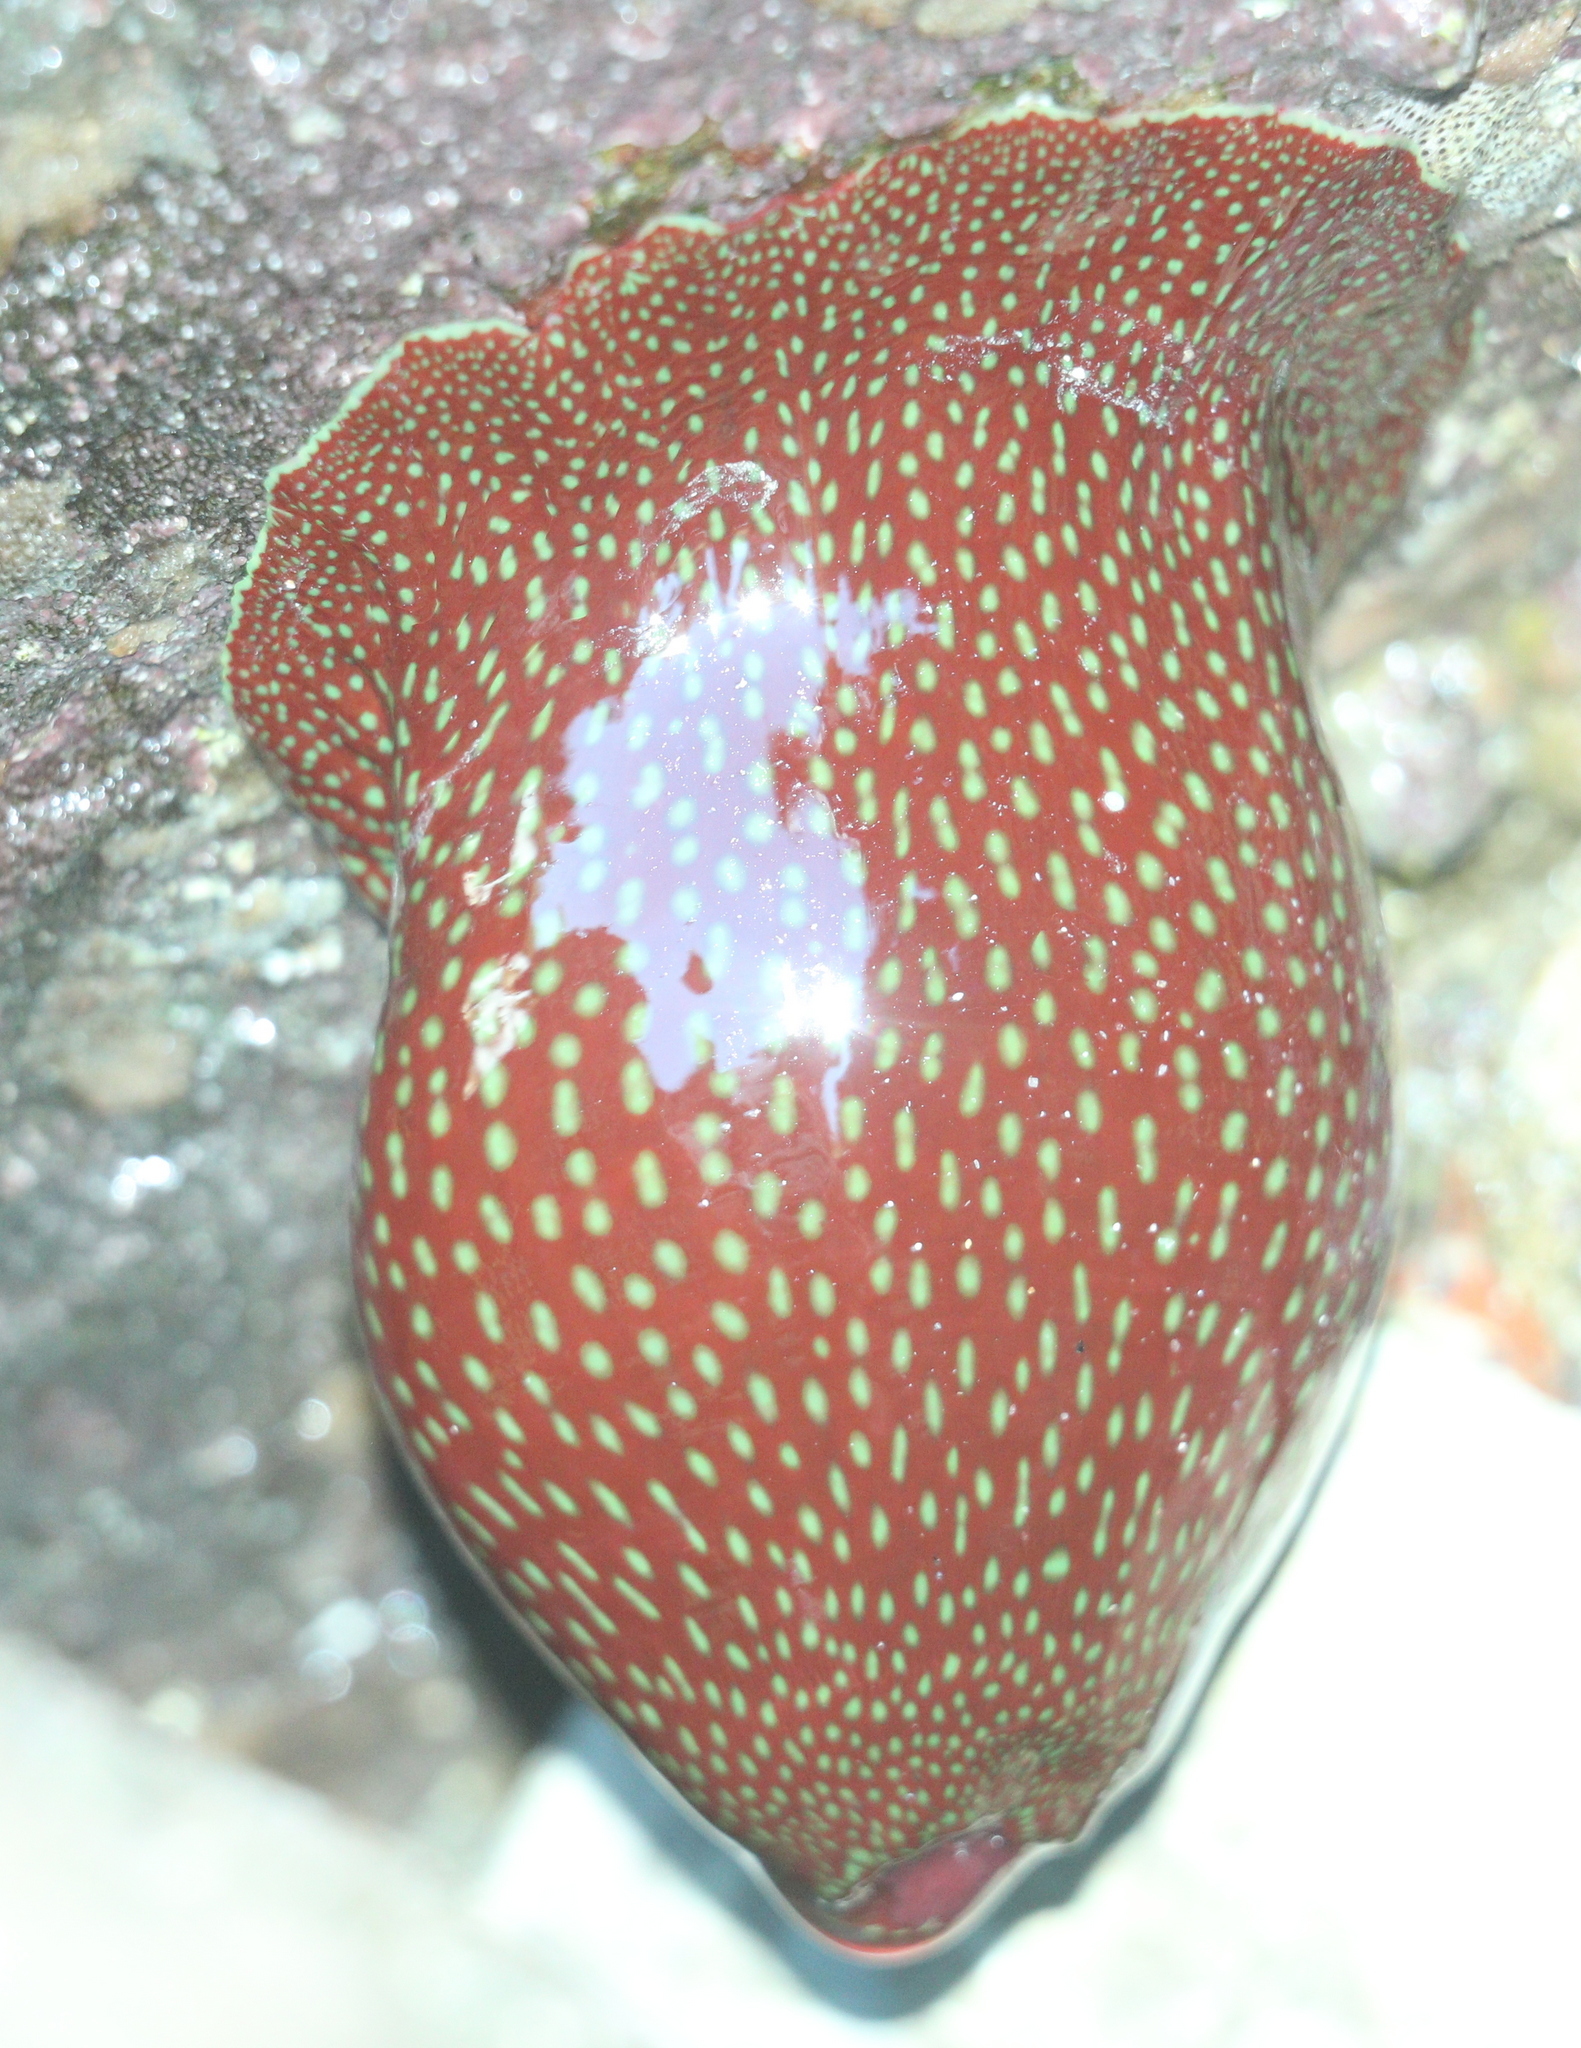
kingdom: Animalia
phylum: Cnidaria
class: Anthozoa
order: Actiniaria
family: Actiniidae
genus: Actinia
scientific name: Actinia fragacea
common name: Strawberry anemone
